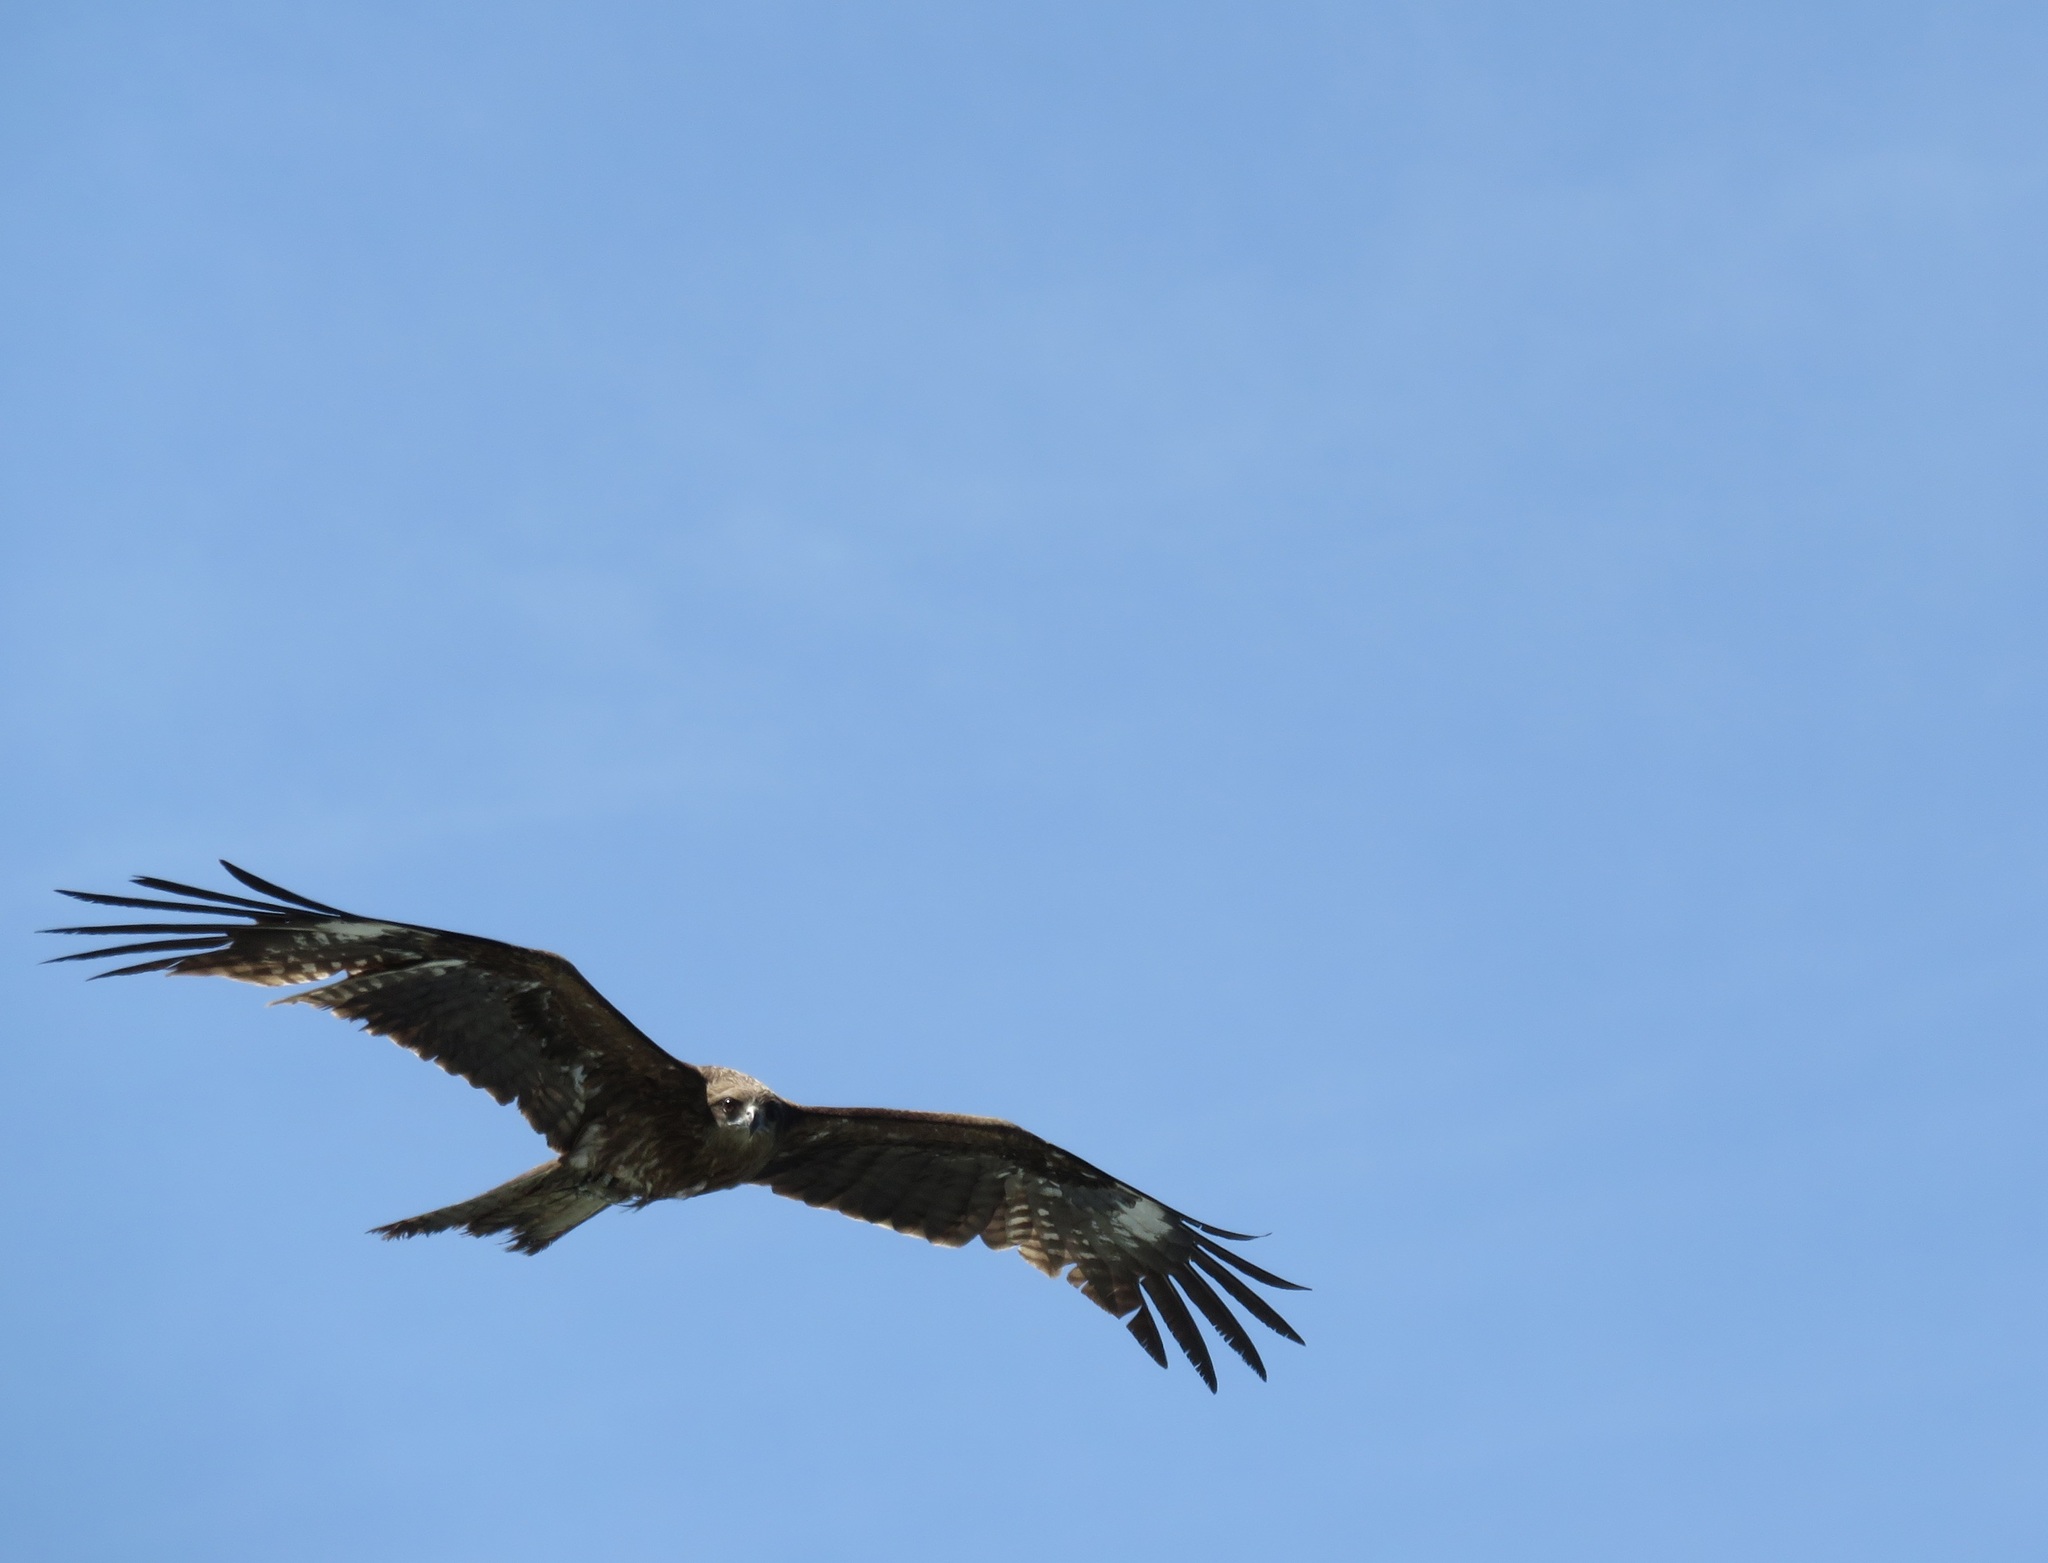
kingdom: Animalia
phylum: Chordata
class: Aves
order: Accipitriformes
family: Accipitridae
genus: Milvus
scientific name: Milvus migrans
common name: Black kite
